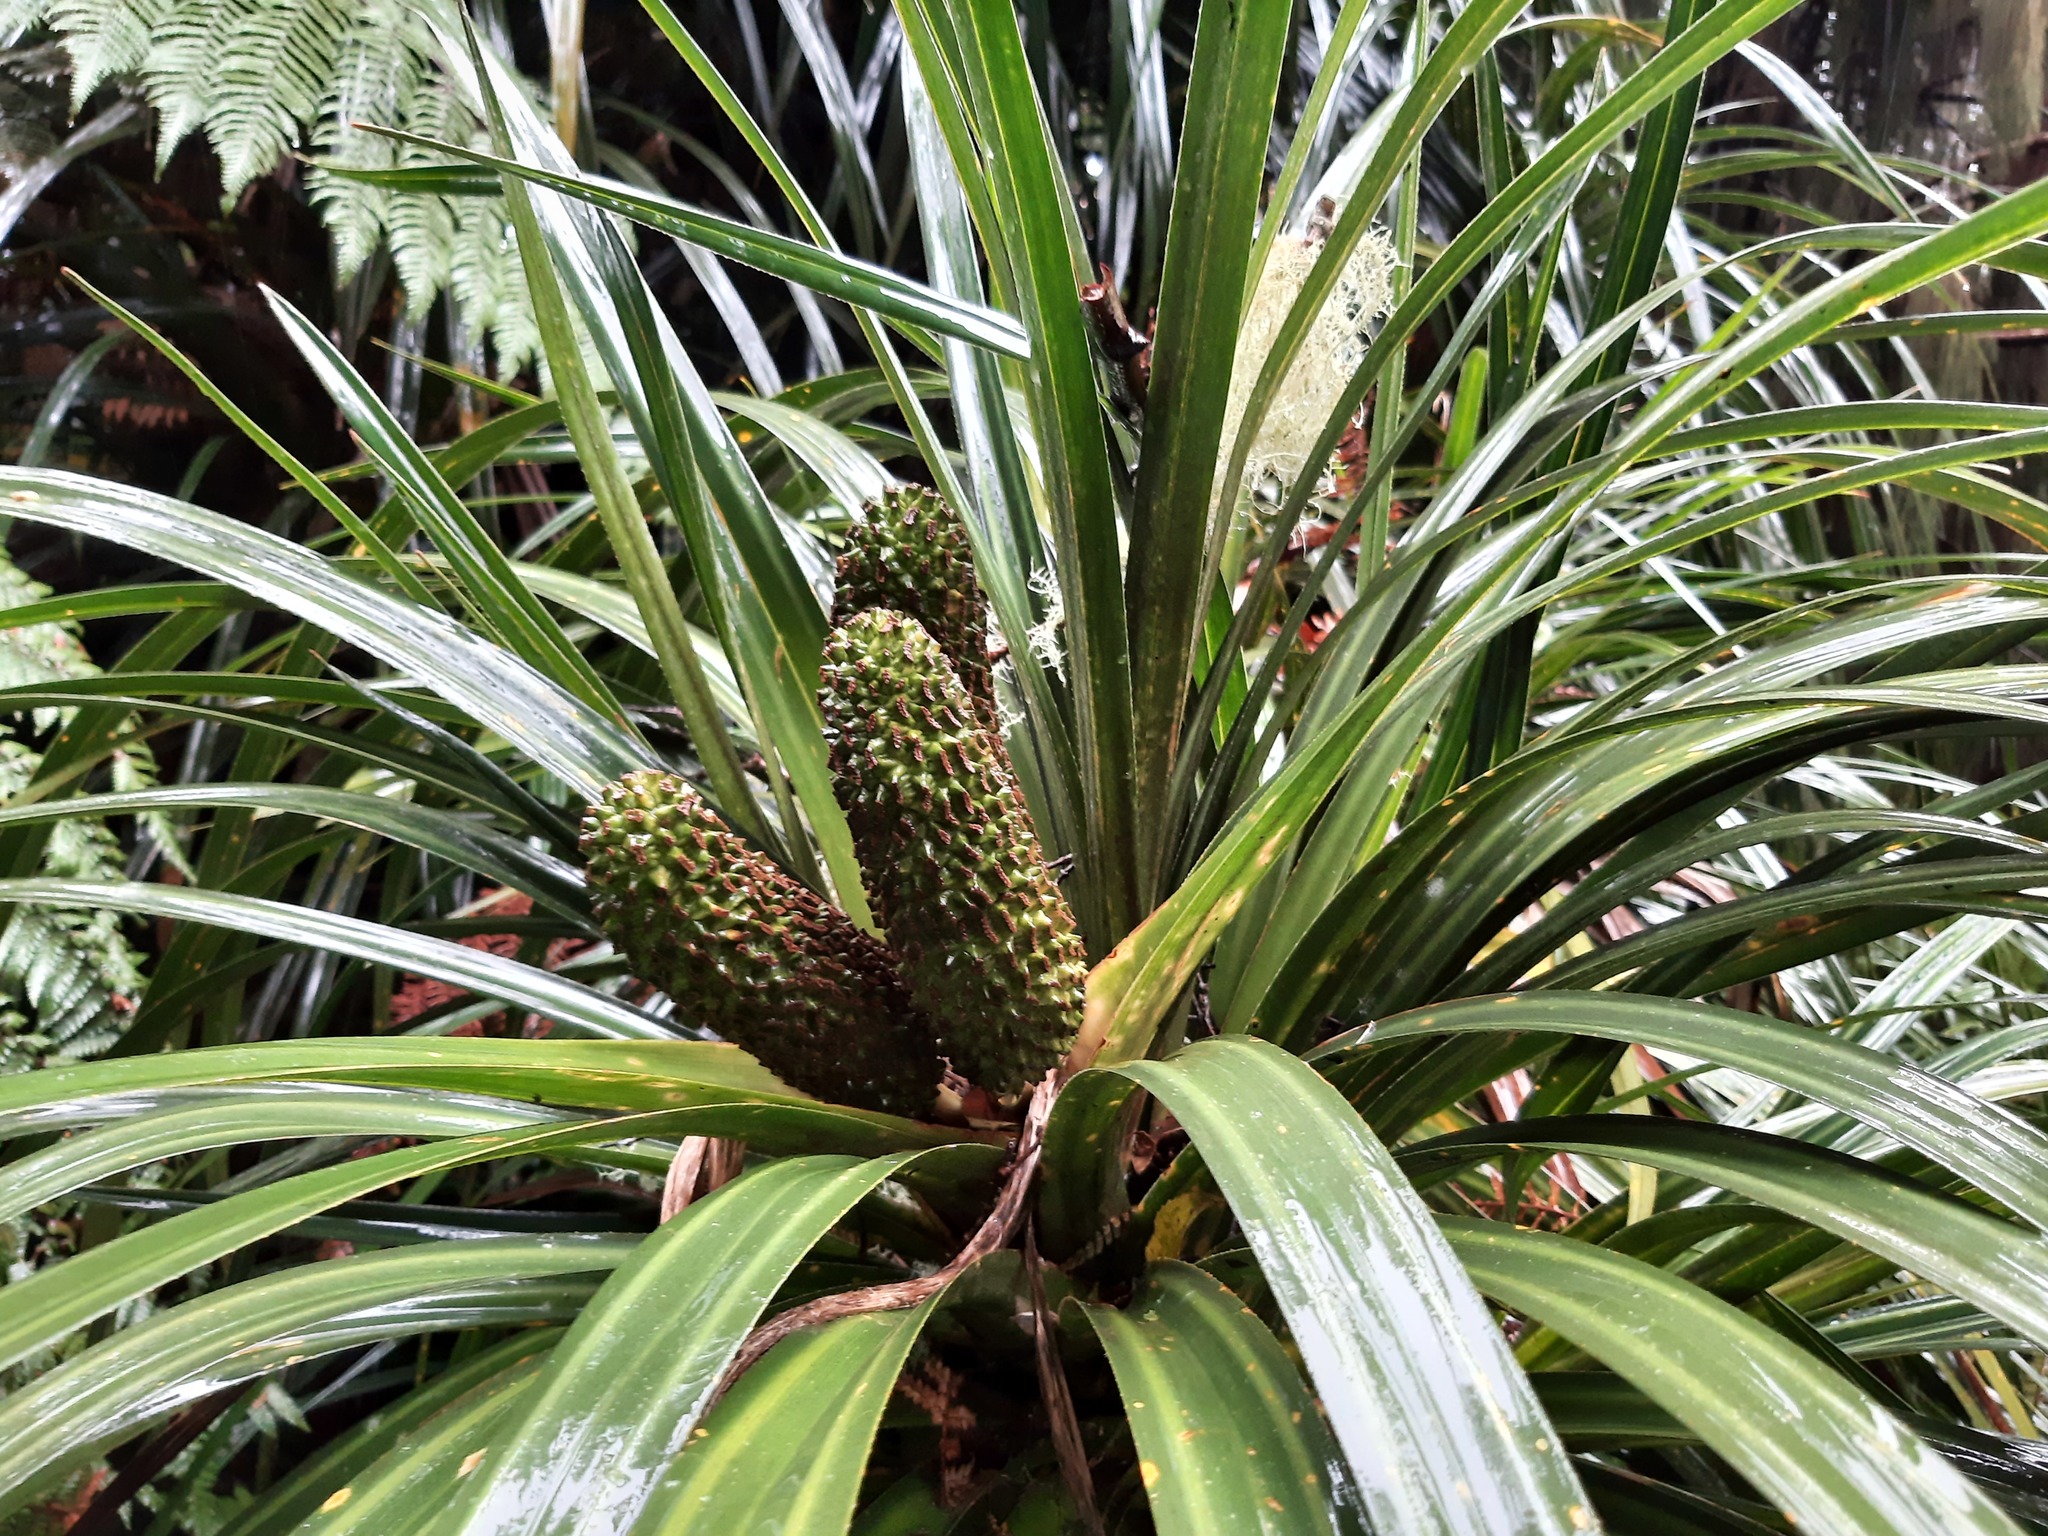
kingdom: Plantae
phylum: Tracheophyta
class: Liliopsida
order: Pandanales
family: Pandanaceae
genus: Freycinetia
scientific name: Freycinetia banksii
